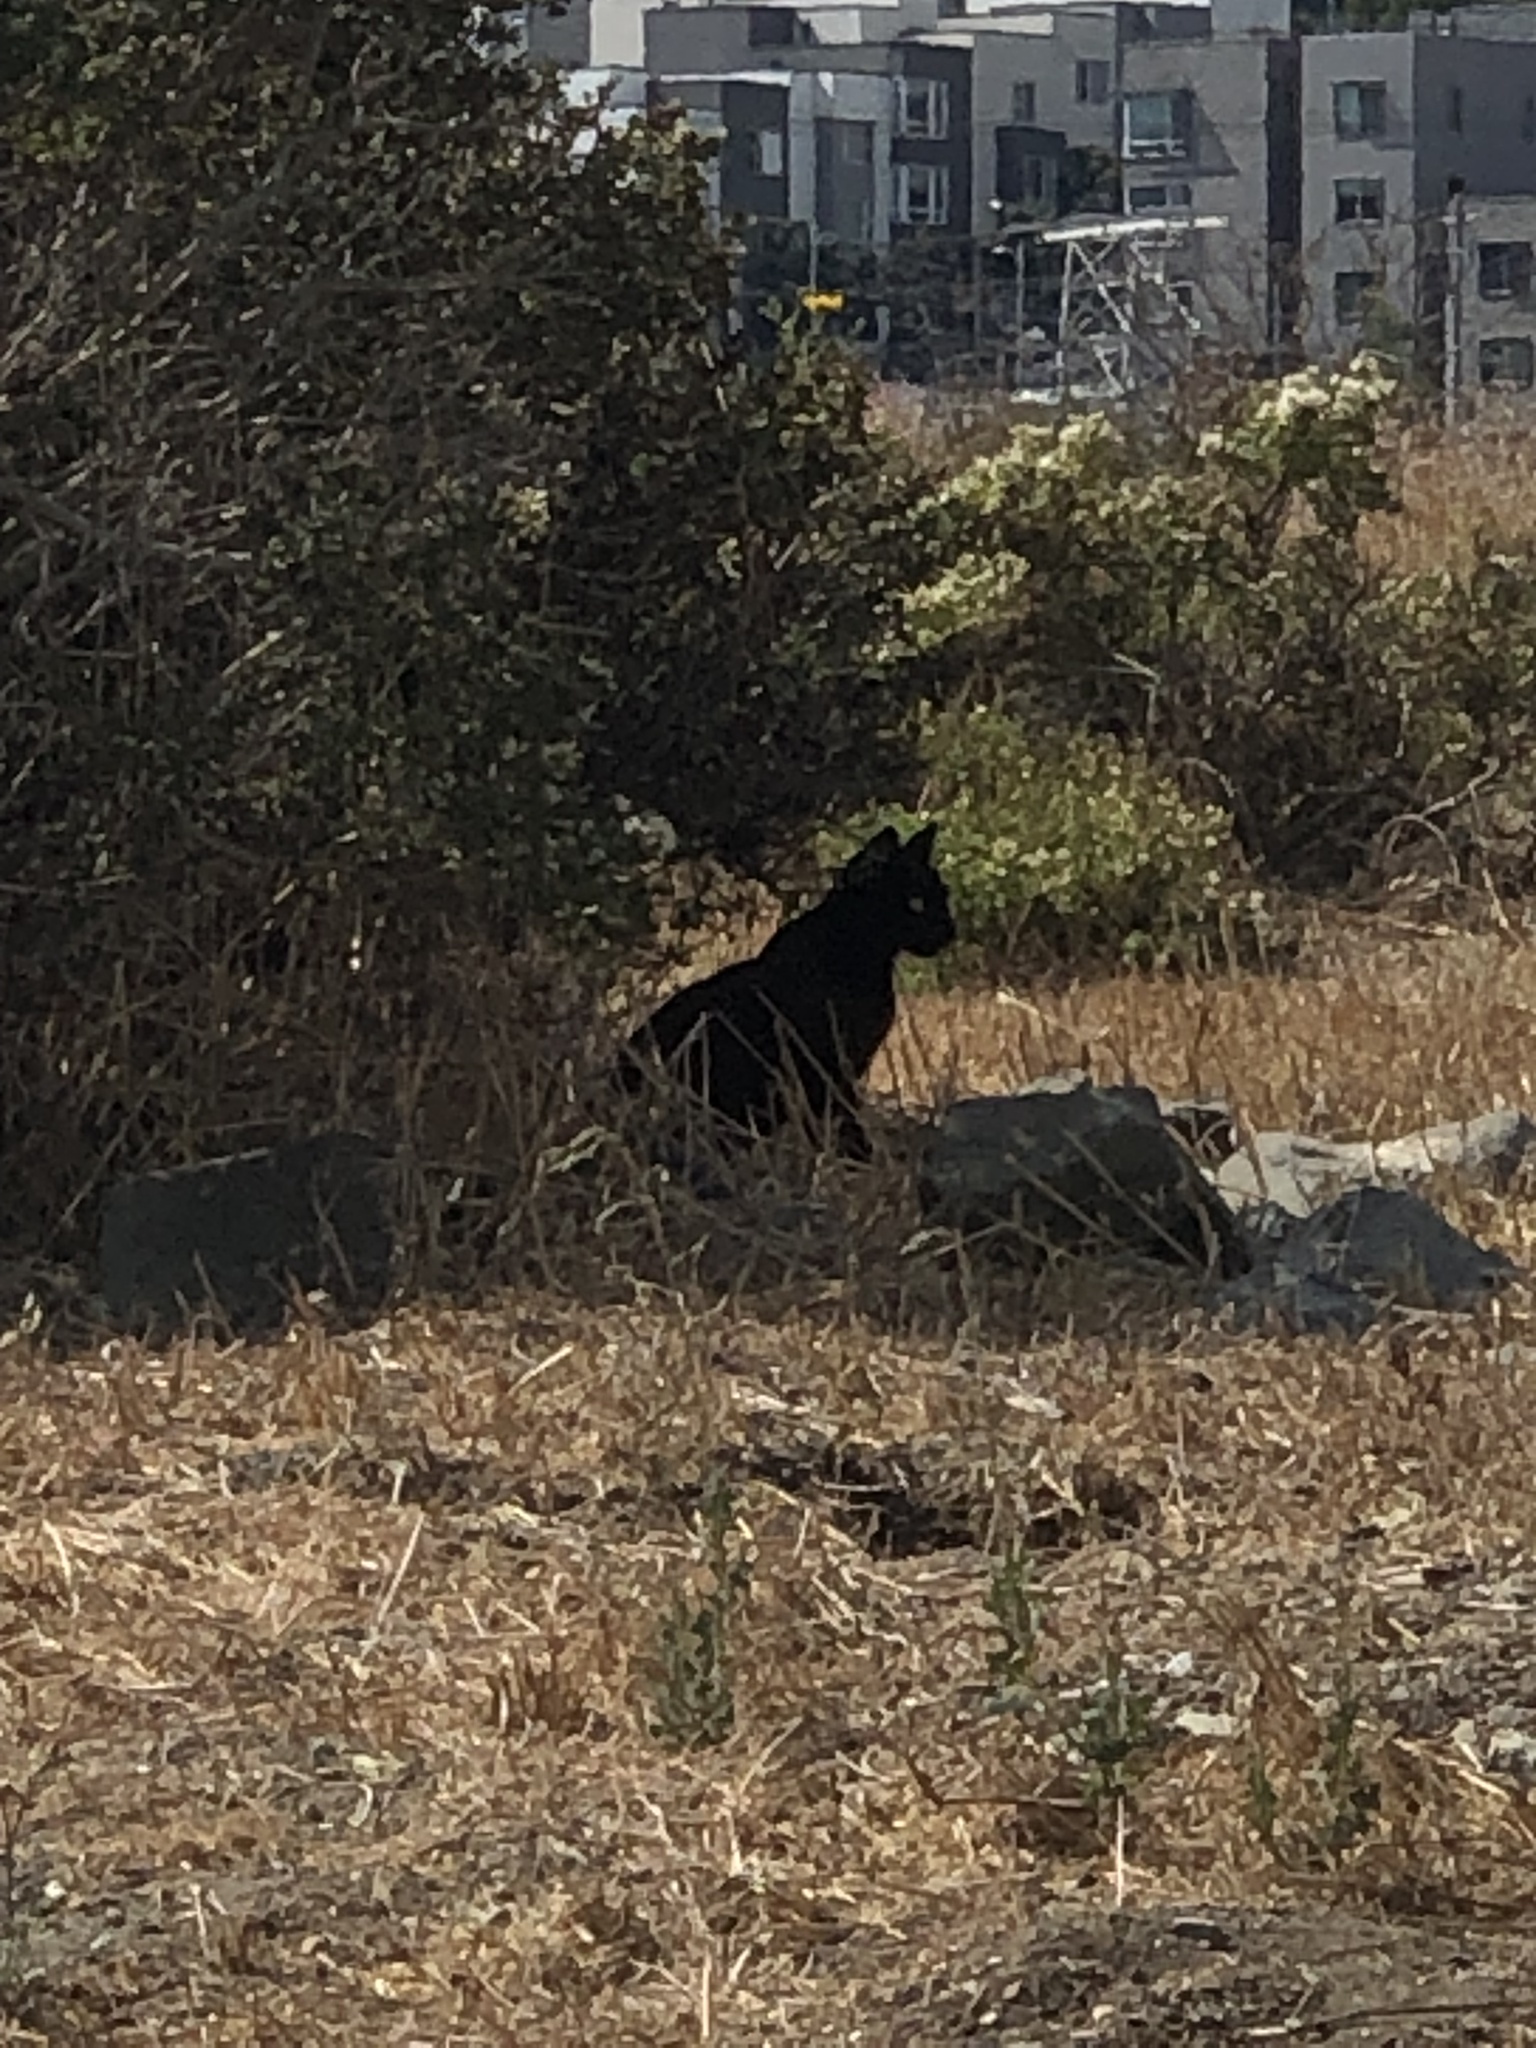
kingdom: Animalia
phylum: Chordata
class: Mammalia
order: Carnivora
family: Felidae
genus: Felis
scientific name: Felis catus
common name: Domestic cat
